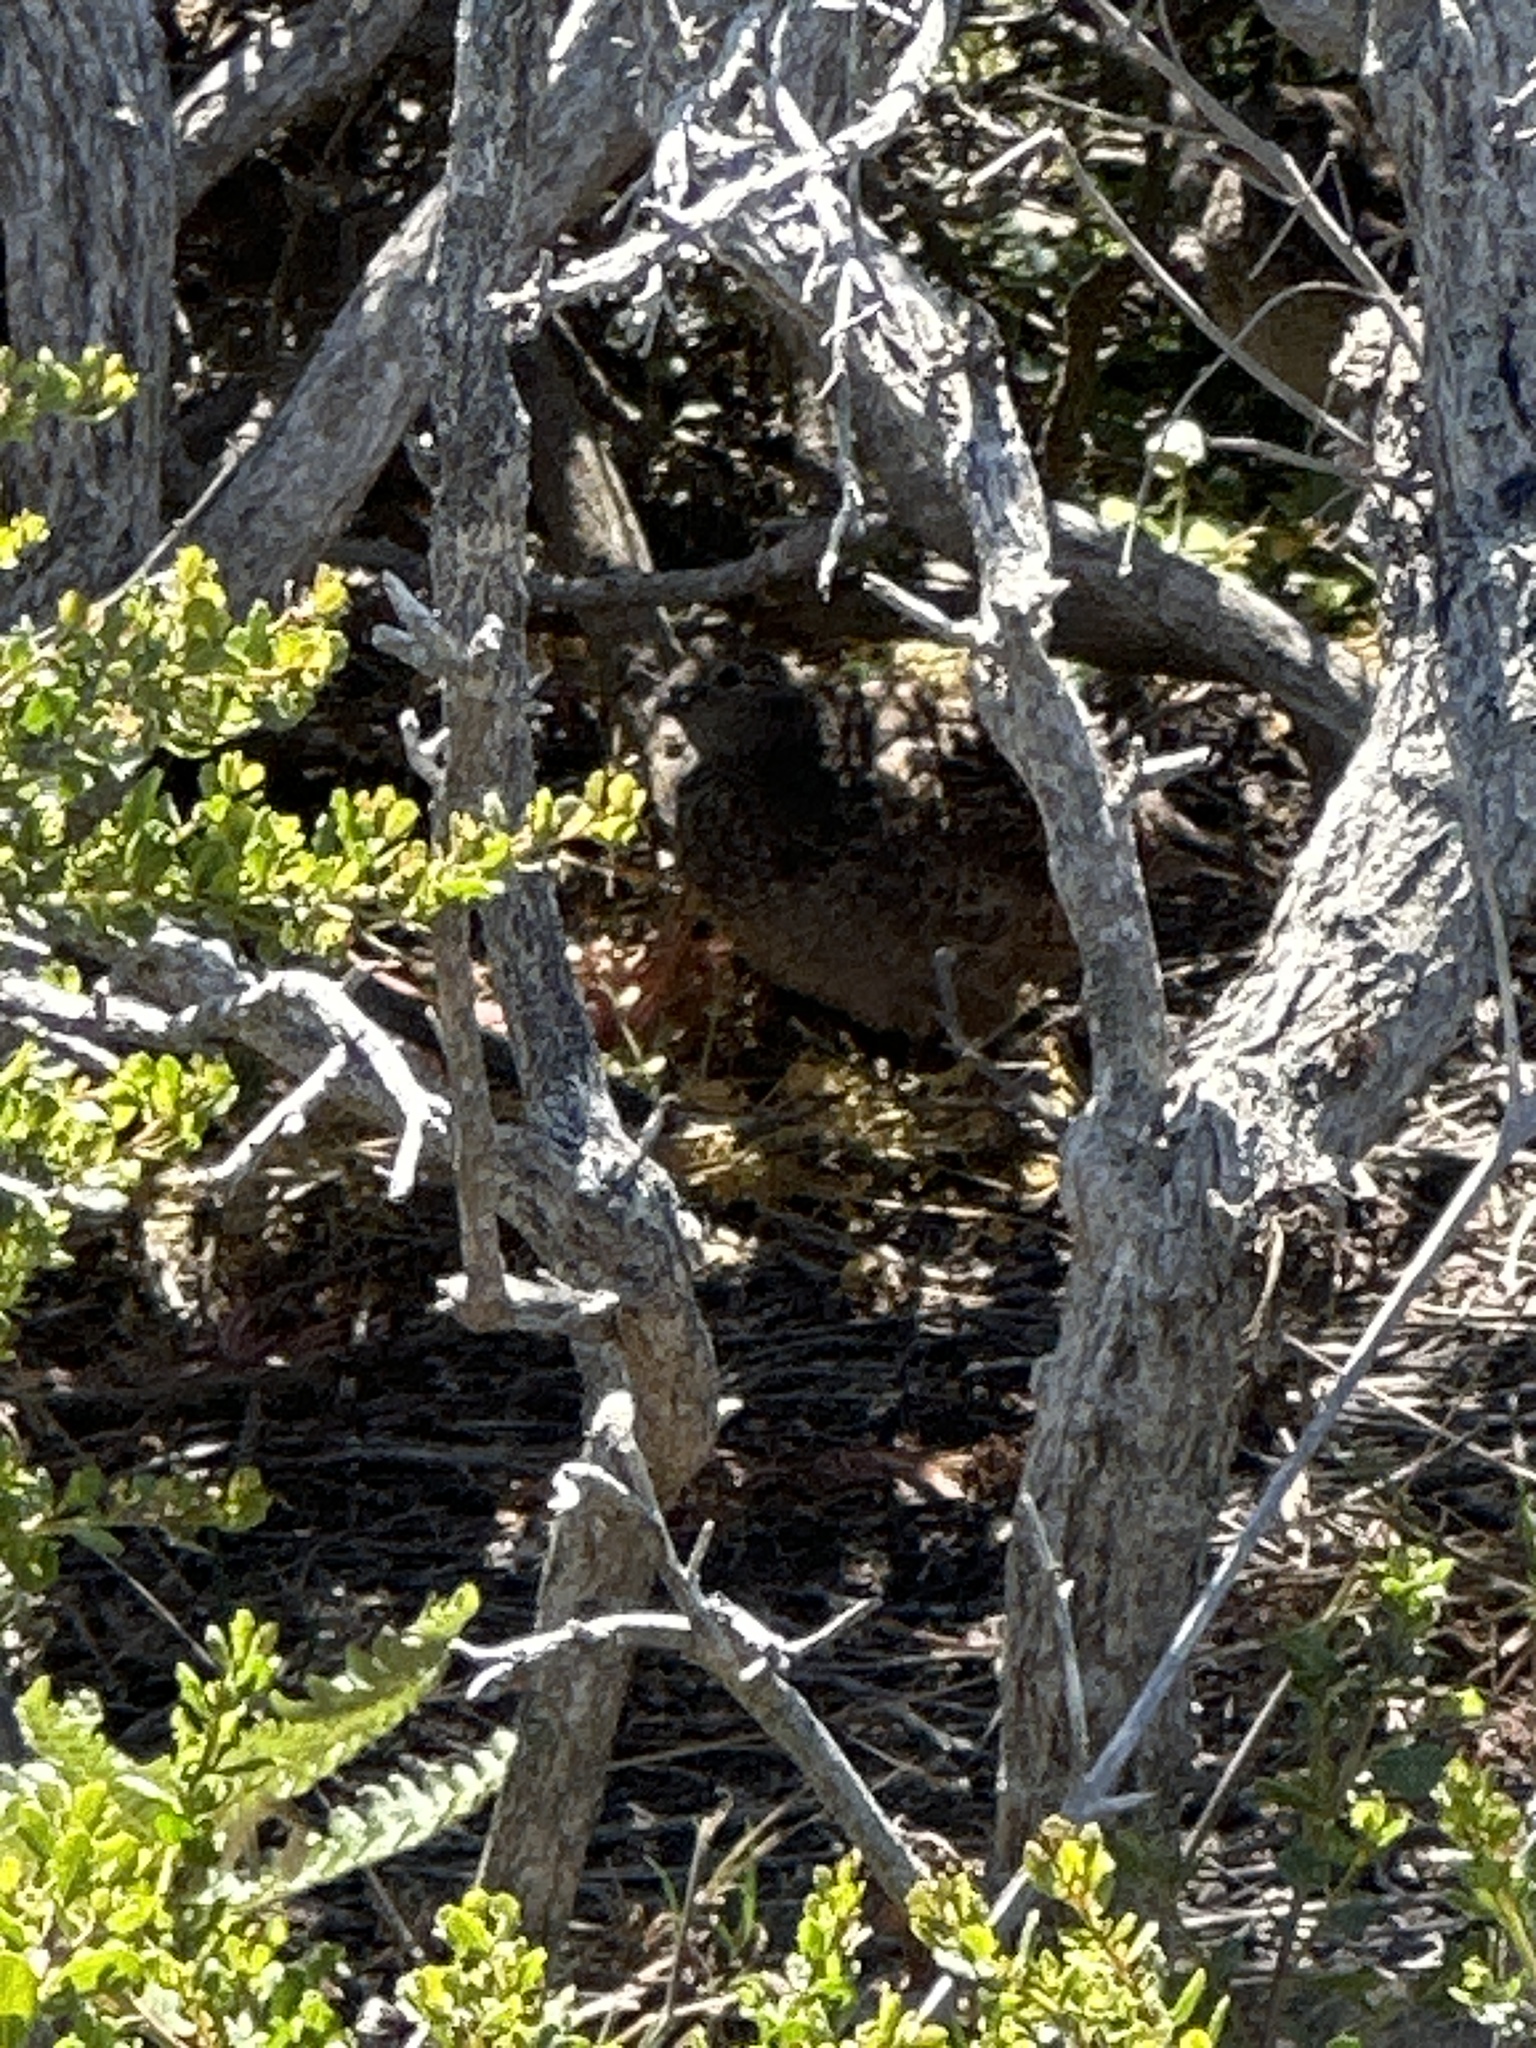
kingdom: Animalia
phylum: Chordata
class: Aves
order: Galliformes
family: Odontophoridae
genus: Callipepla
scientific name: Callipepla californica
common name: California quail
